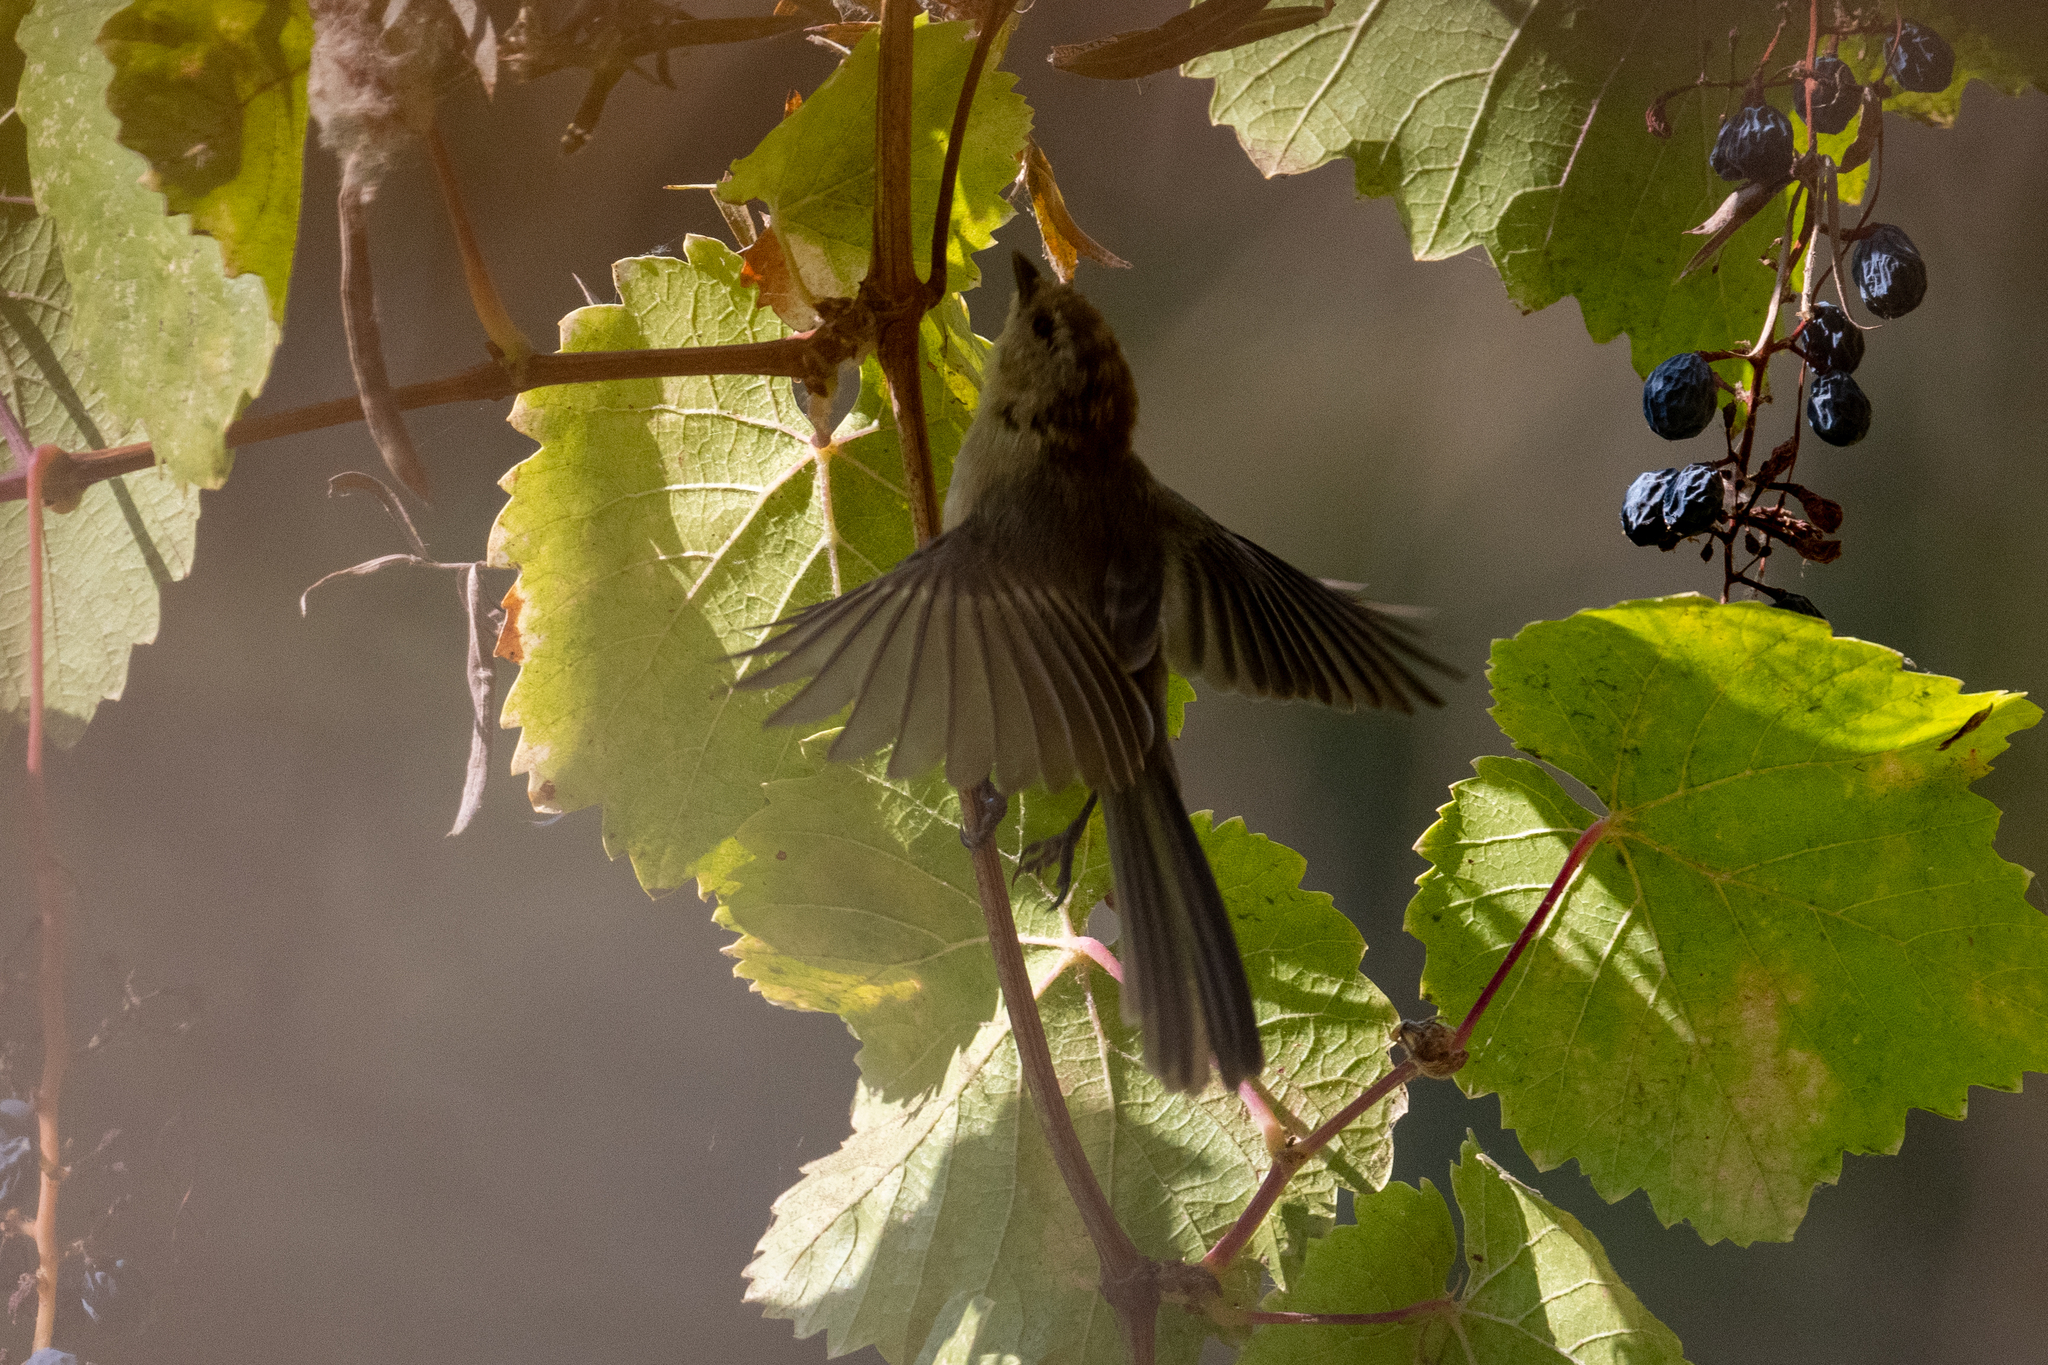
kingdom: Animalia
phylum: Chordata
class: Aves
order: Passeriformes
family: Aegithalidae
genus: Psaltriparus
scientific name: Psaltriparus minimus
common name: American bushtit
